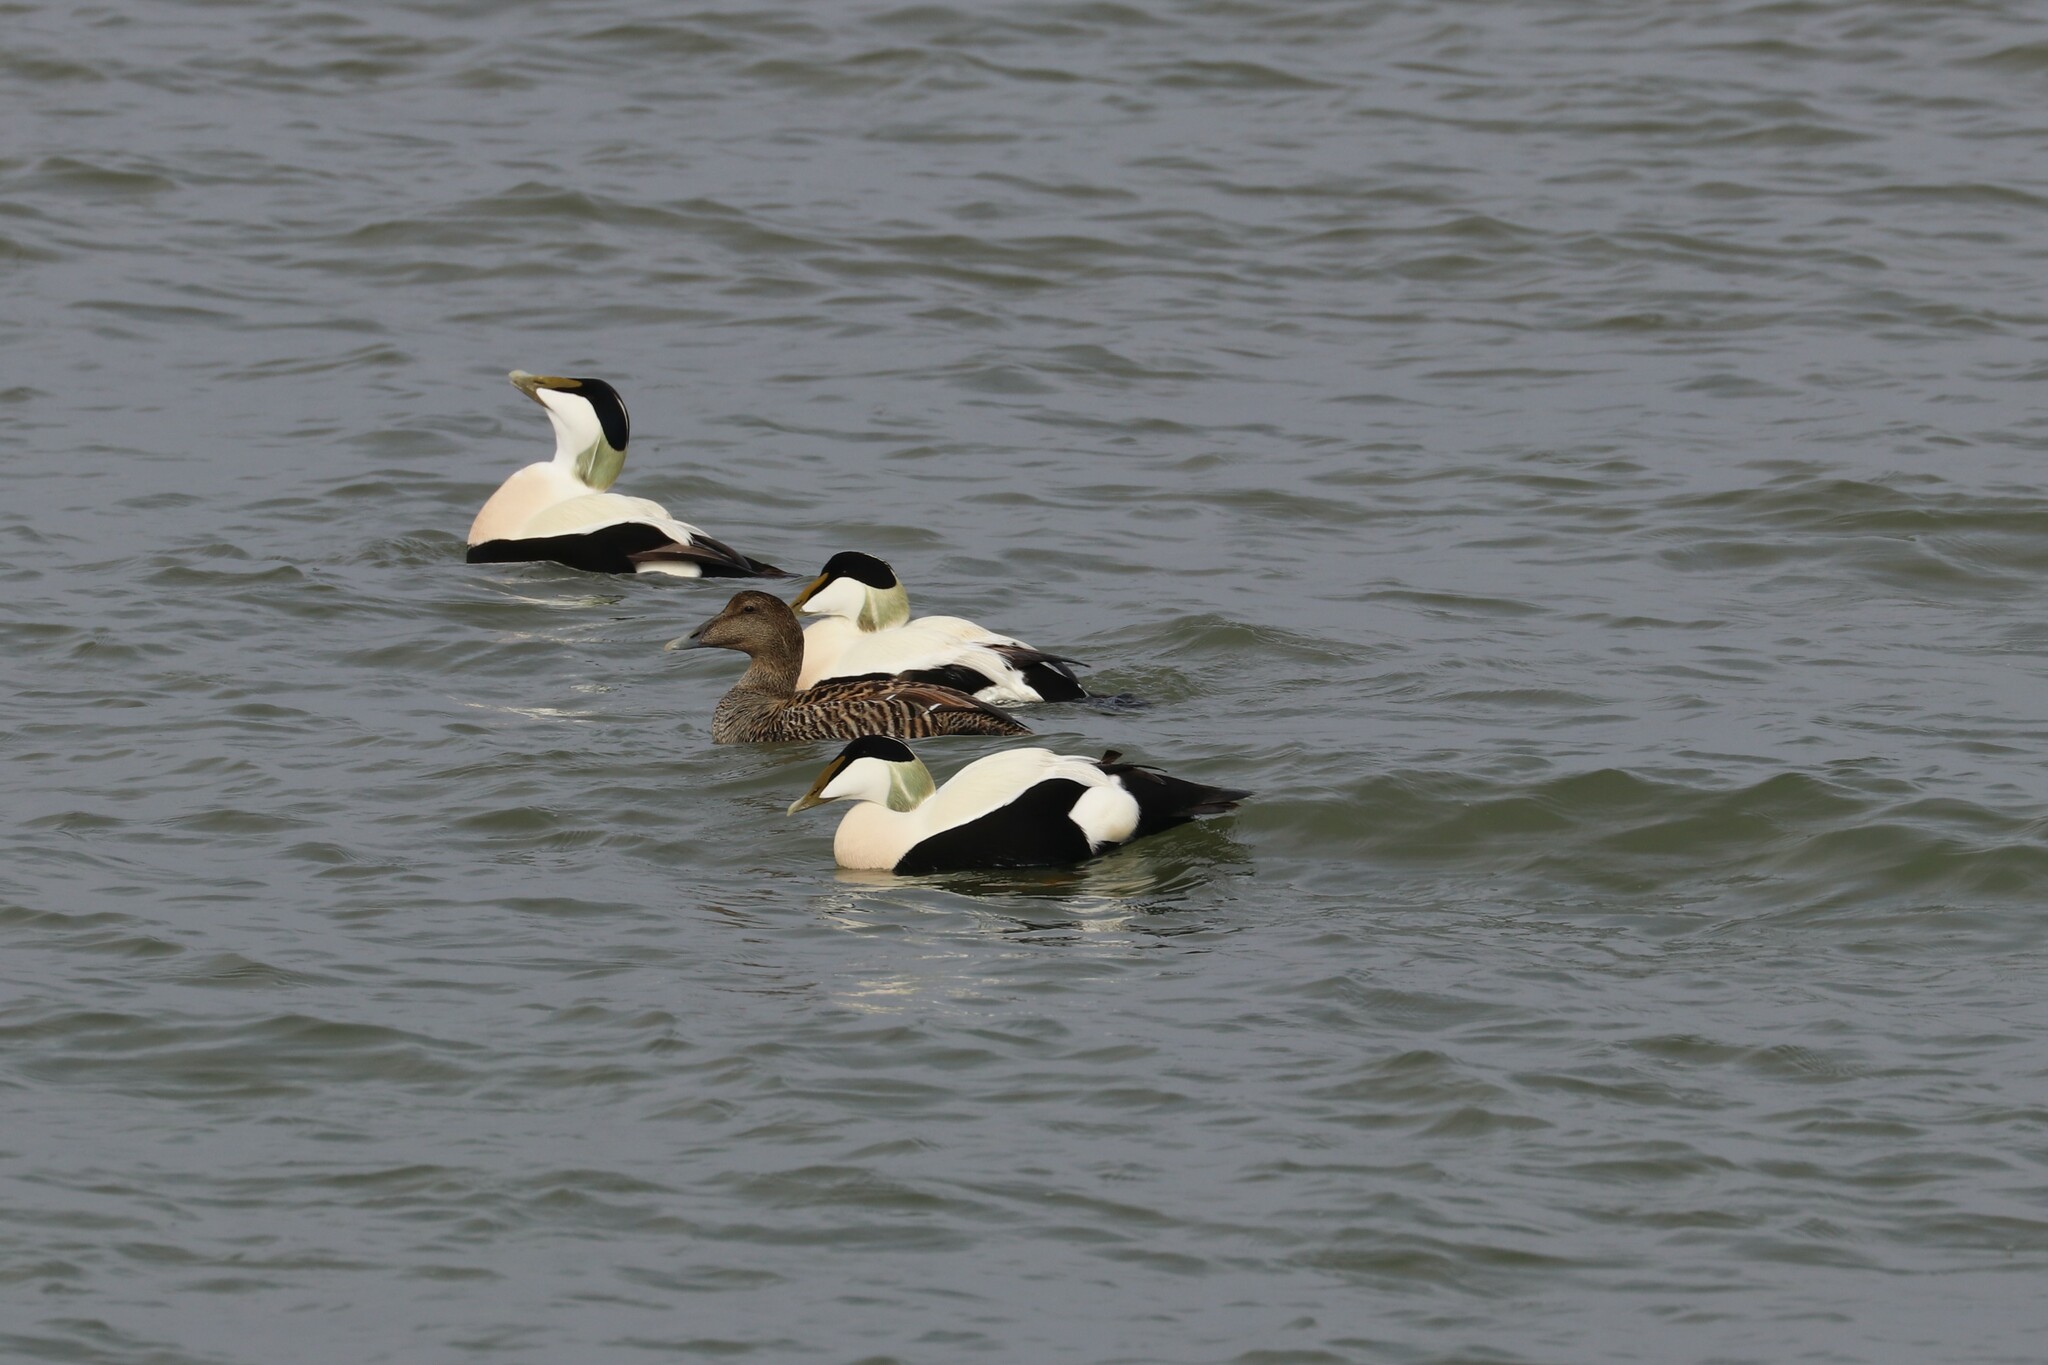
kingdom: Animalia
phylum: Chordata
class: Aves
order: Anseriformes
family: Anatidae
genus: Somateria
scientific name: Somateria mollissima
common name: Common eider
